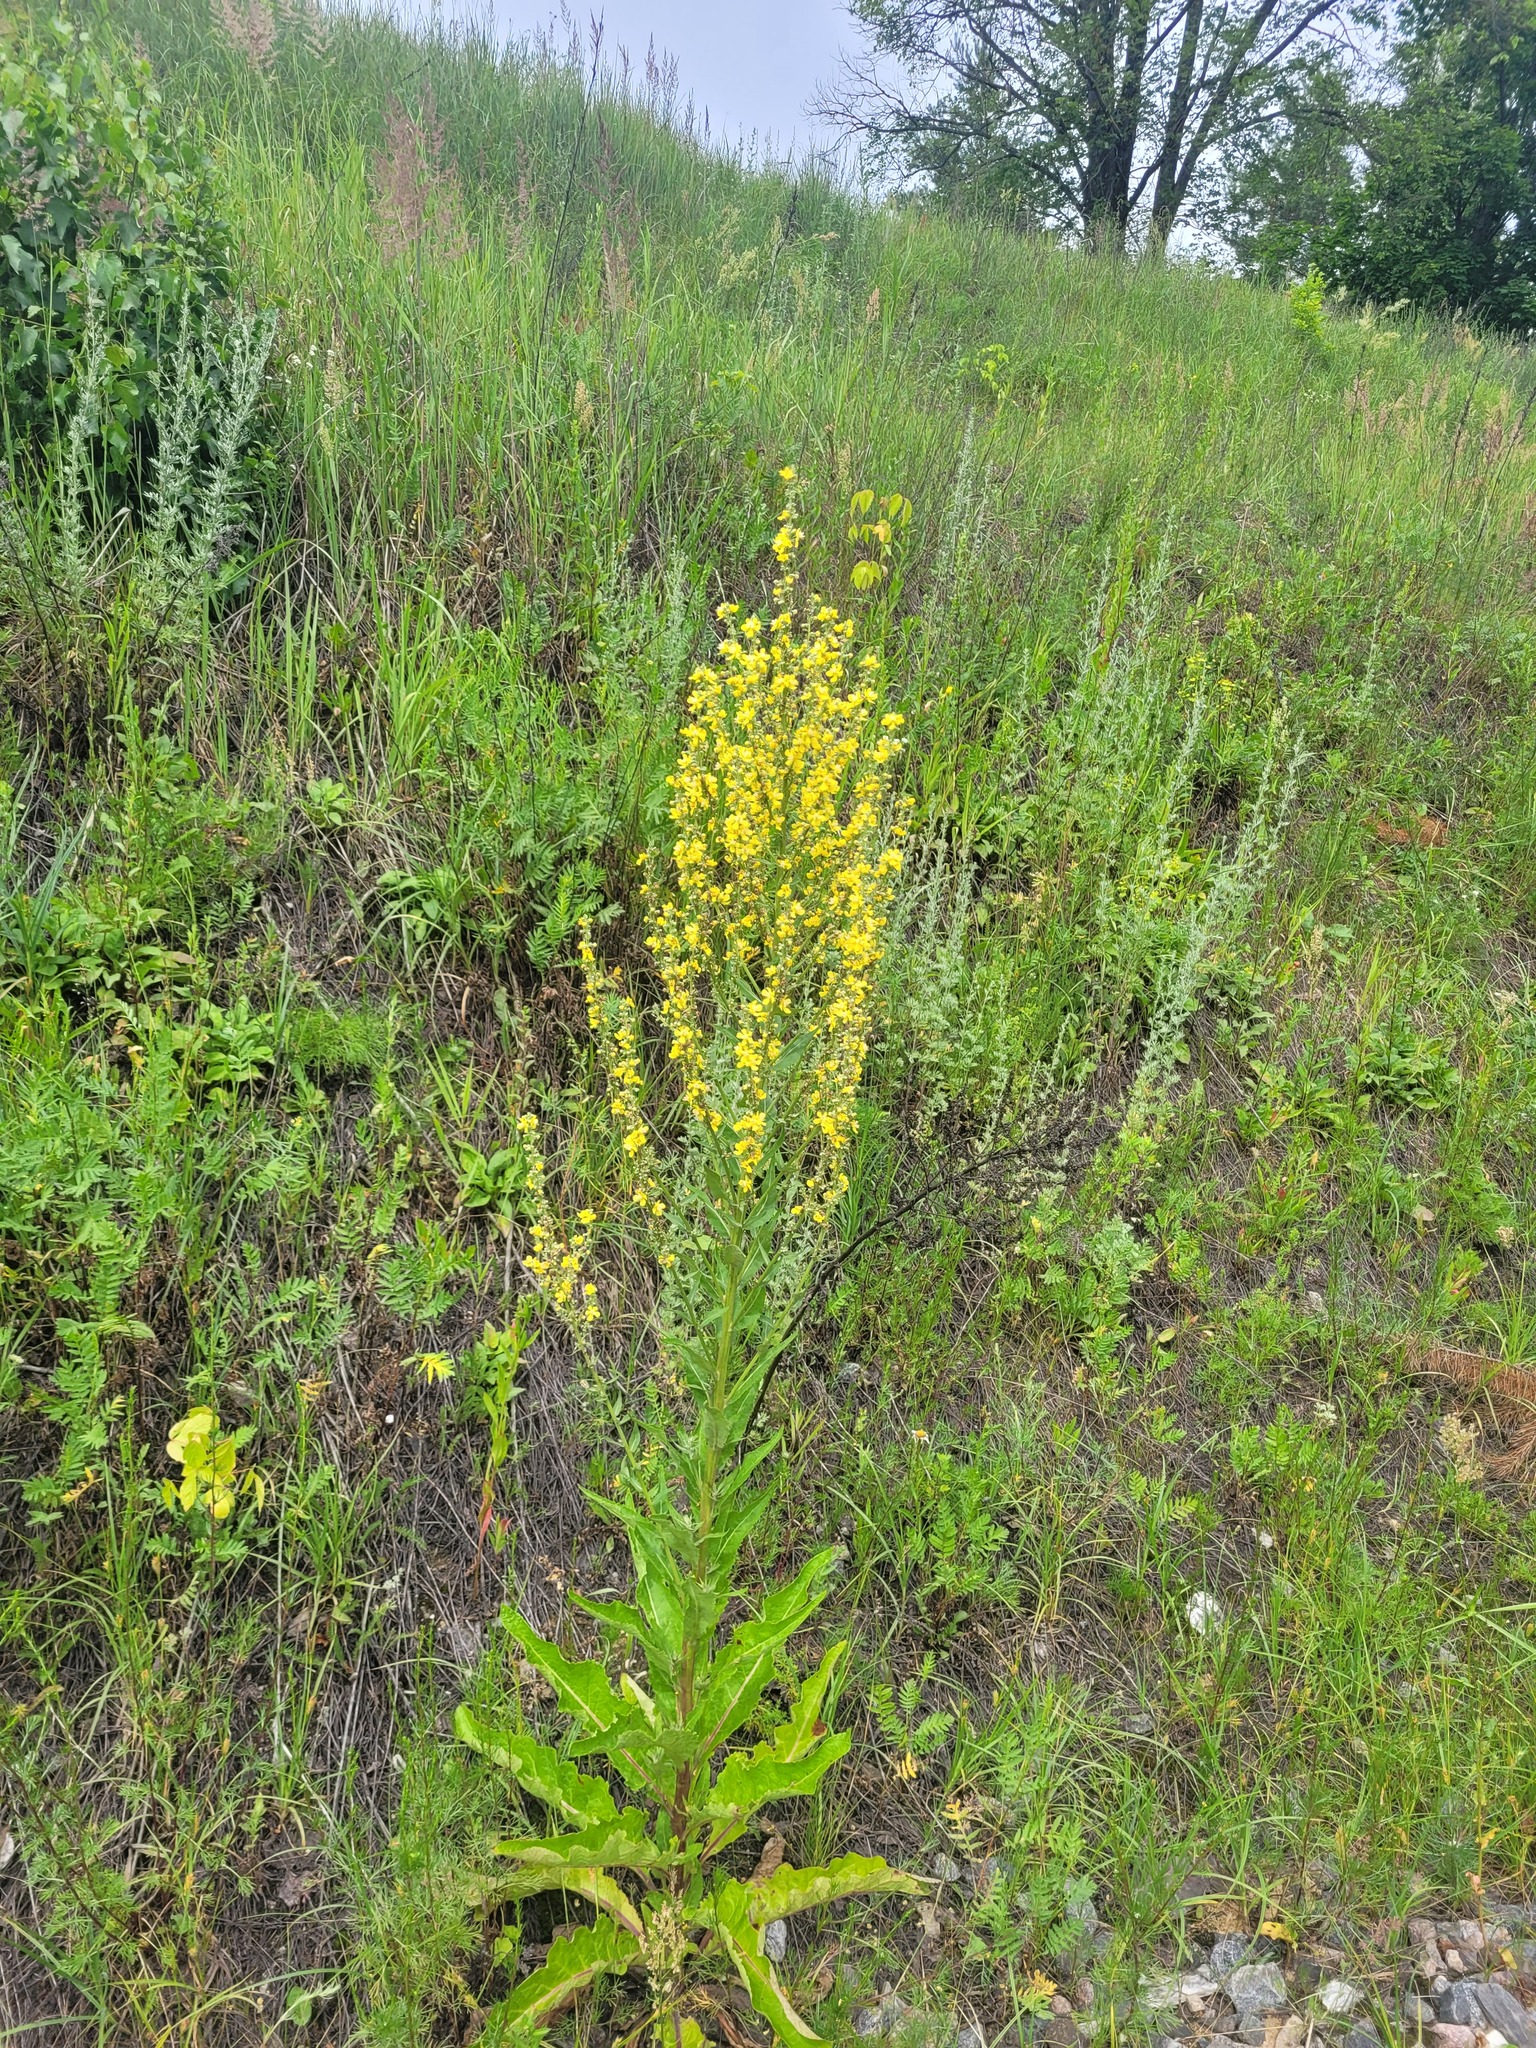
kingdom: Plantae
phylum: Tracheophyta
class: Magnoliopsida
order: Lamiales
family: Scrophulariaceae
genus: Verbascum
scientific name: Verbascum lychnitis
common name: White mullein
